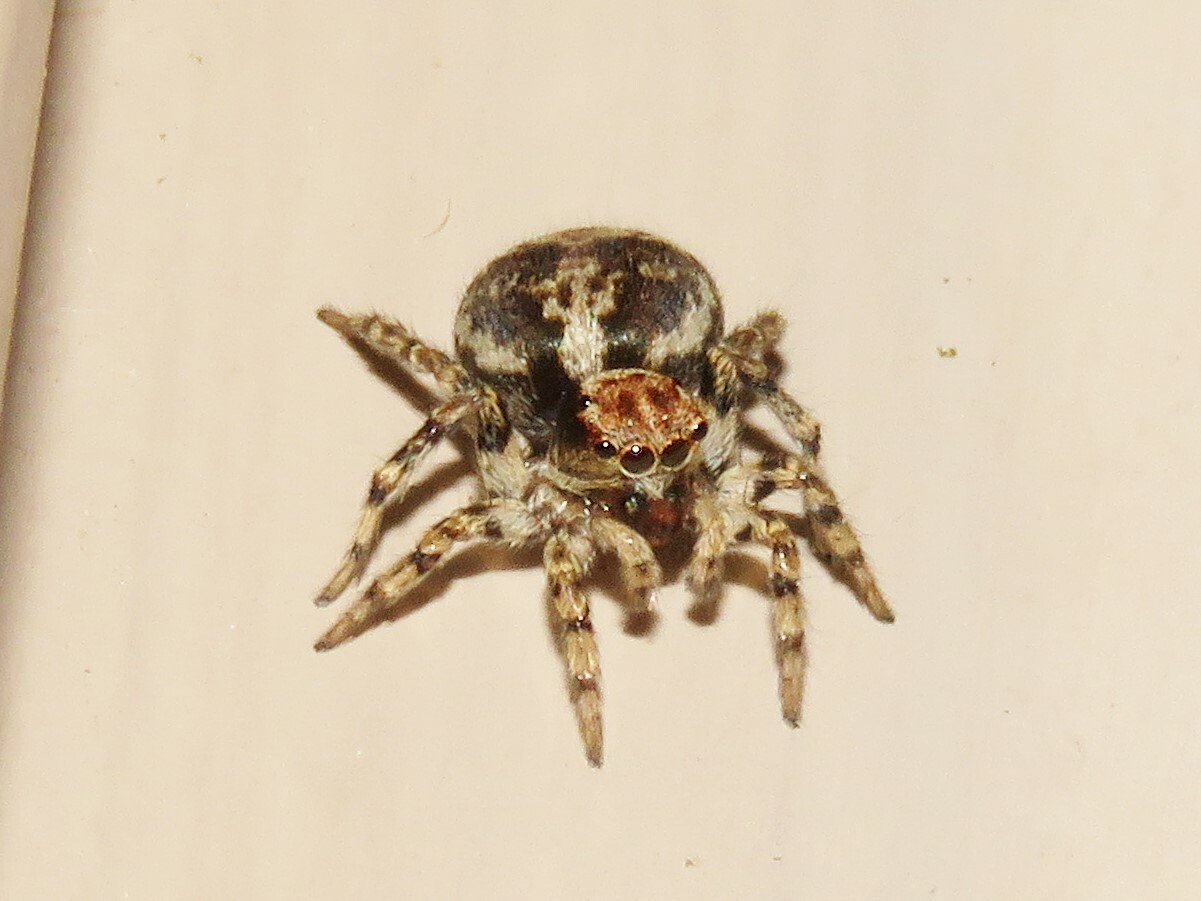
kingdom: Animalia
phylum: Arthropoda
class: Arachnida
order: Araneae
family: Salticidae
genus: Naphrys
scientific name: Naphrys pulex
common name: Flea jumping spider
